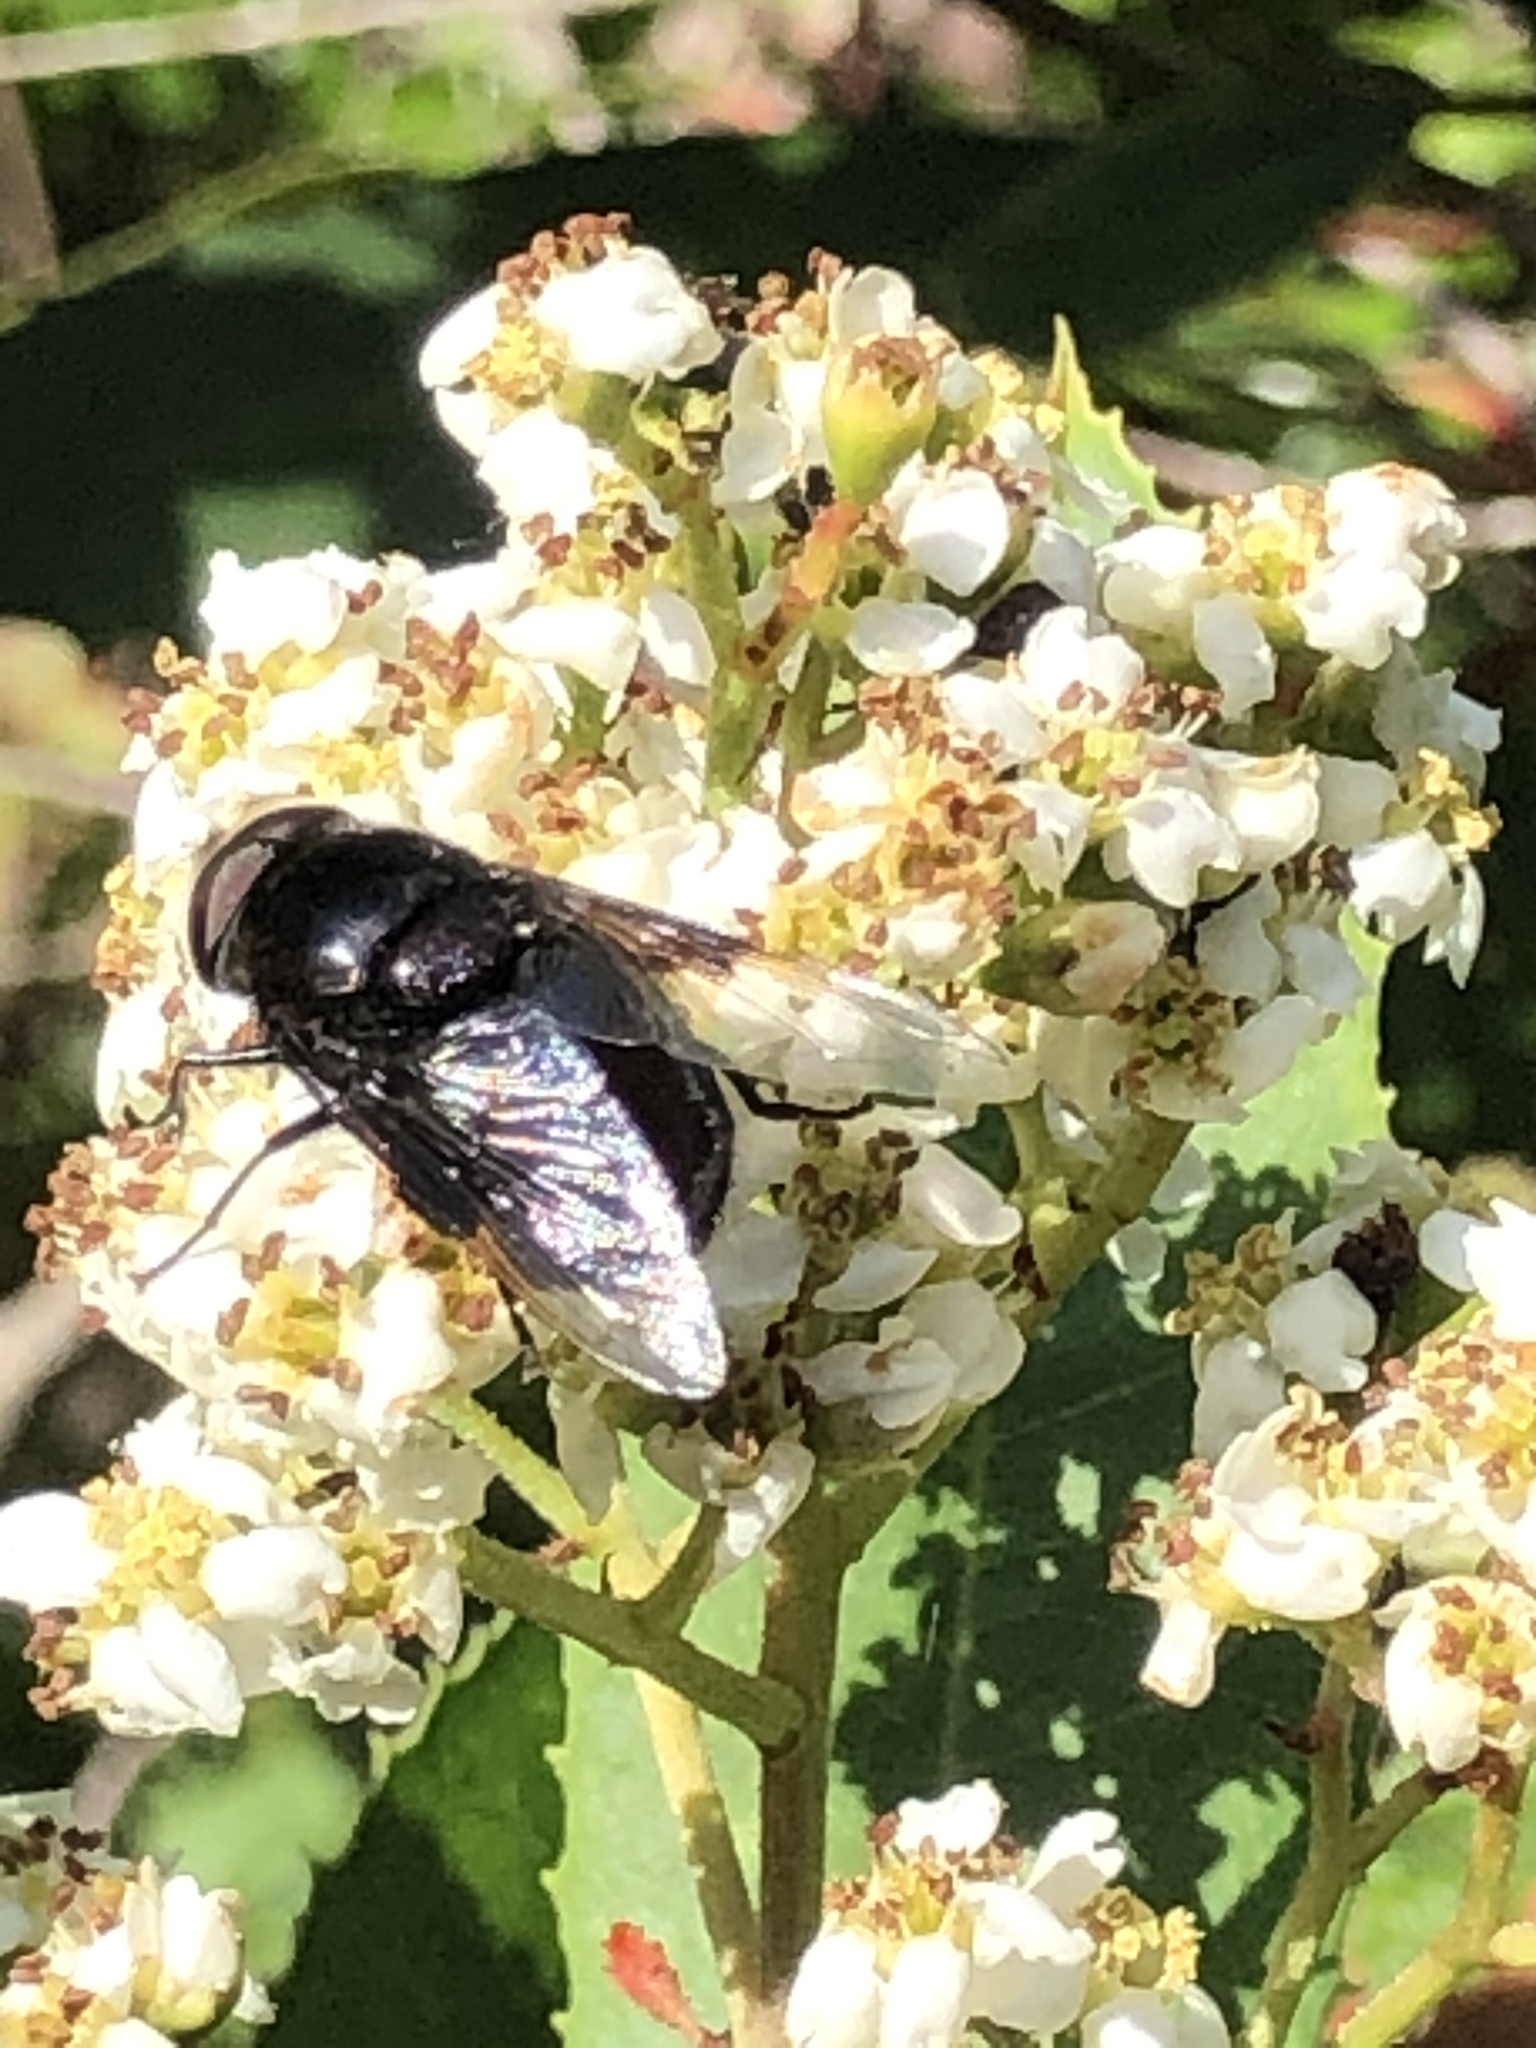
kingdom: Animalia
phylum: Arthropoda
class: Insecta
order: Diptera
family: Syrphidae
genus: Copestylum
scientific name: Copestylum
